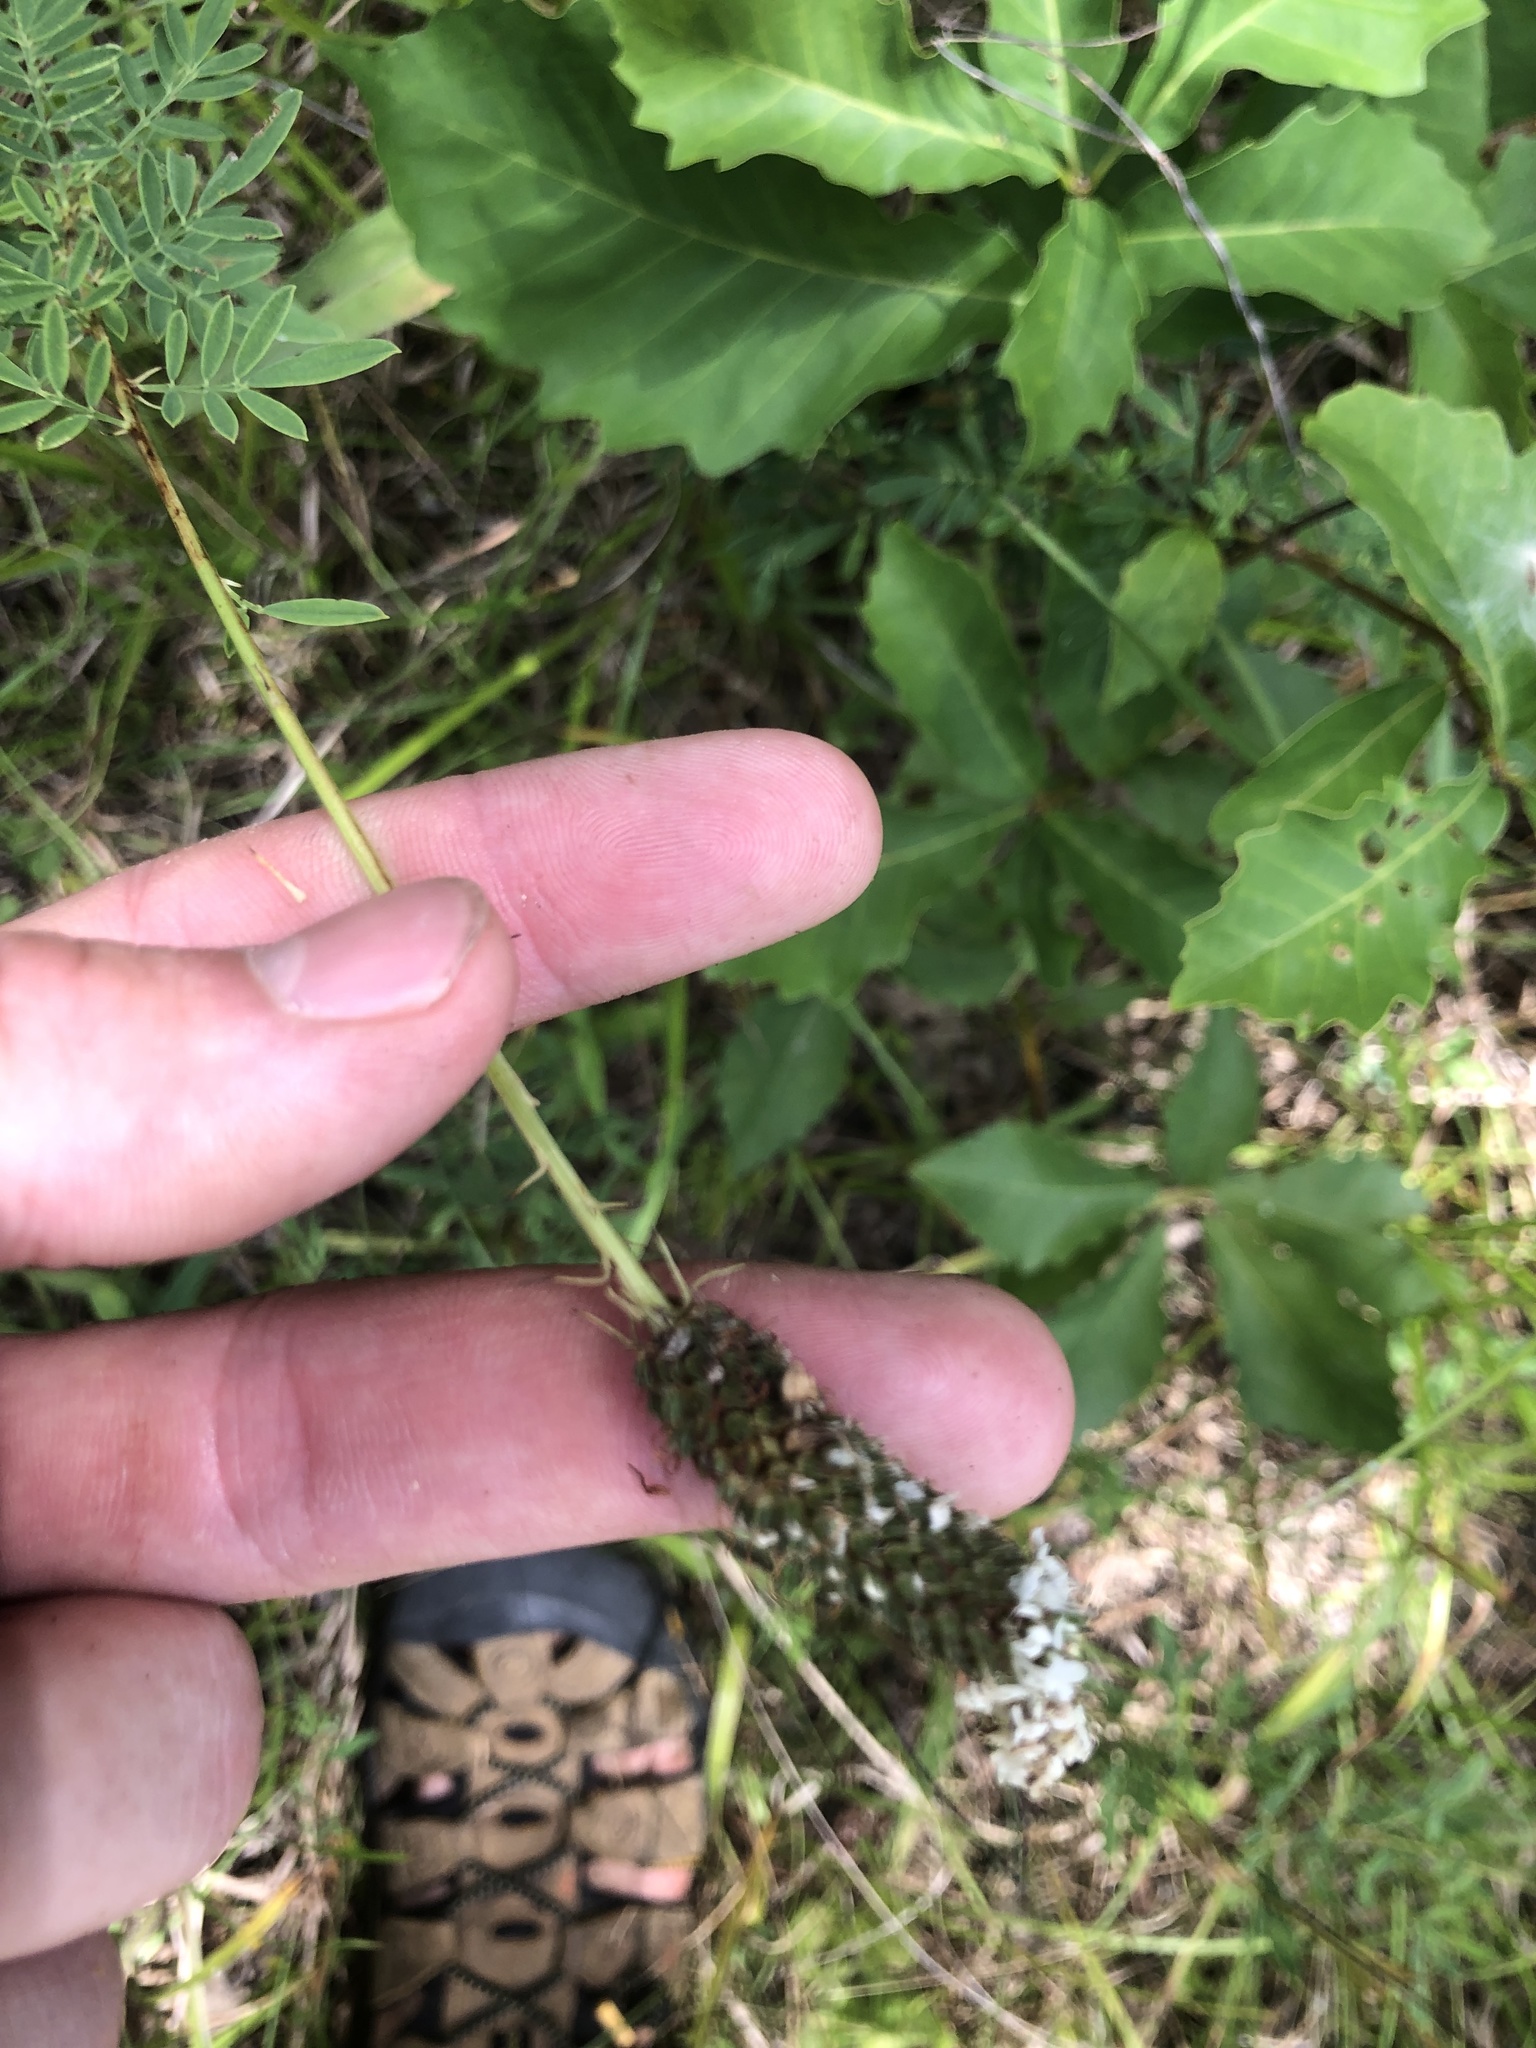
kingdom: Plantae
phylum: Tracheophyta
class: Magnoliopsida
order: Fabales
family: Fabaceae
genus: Dalea
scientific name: Dalea candida
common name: White prairie-clover
